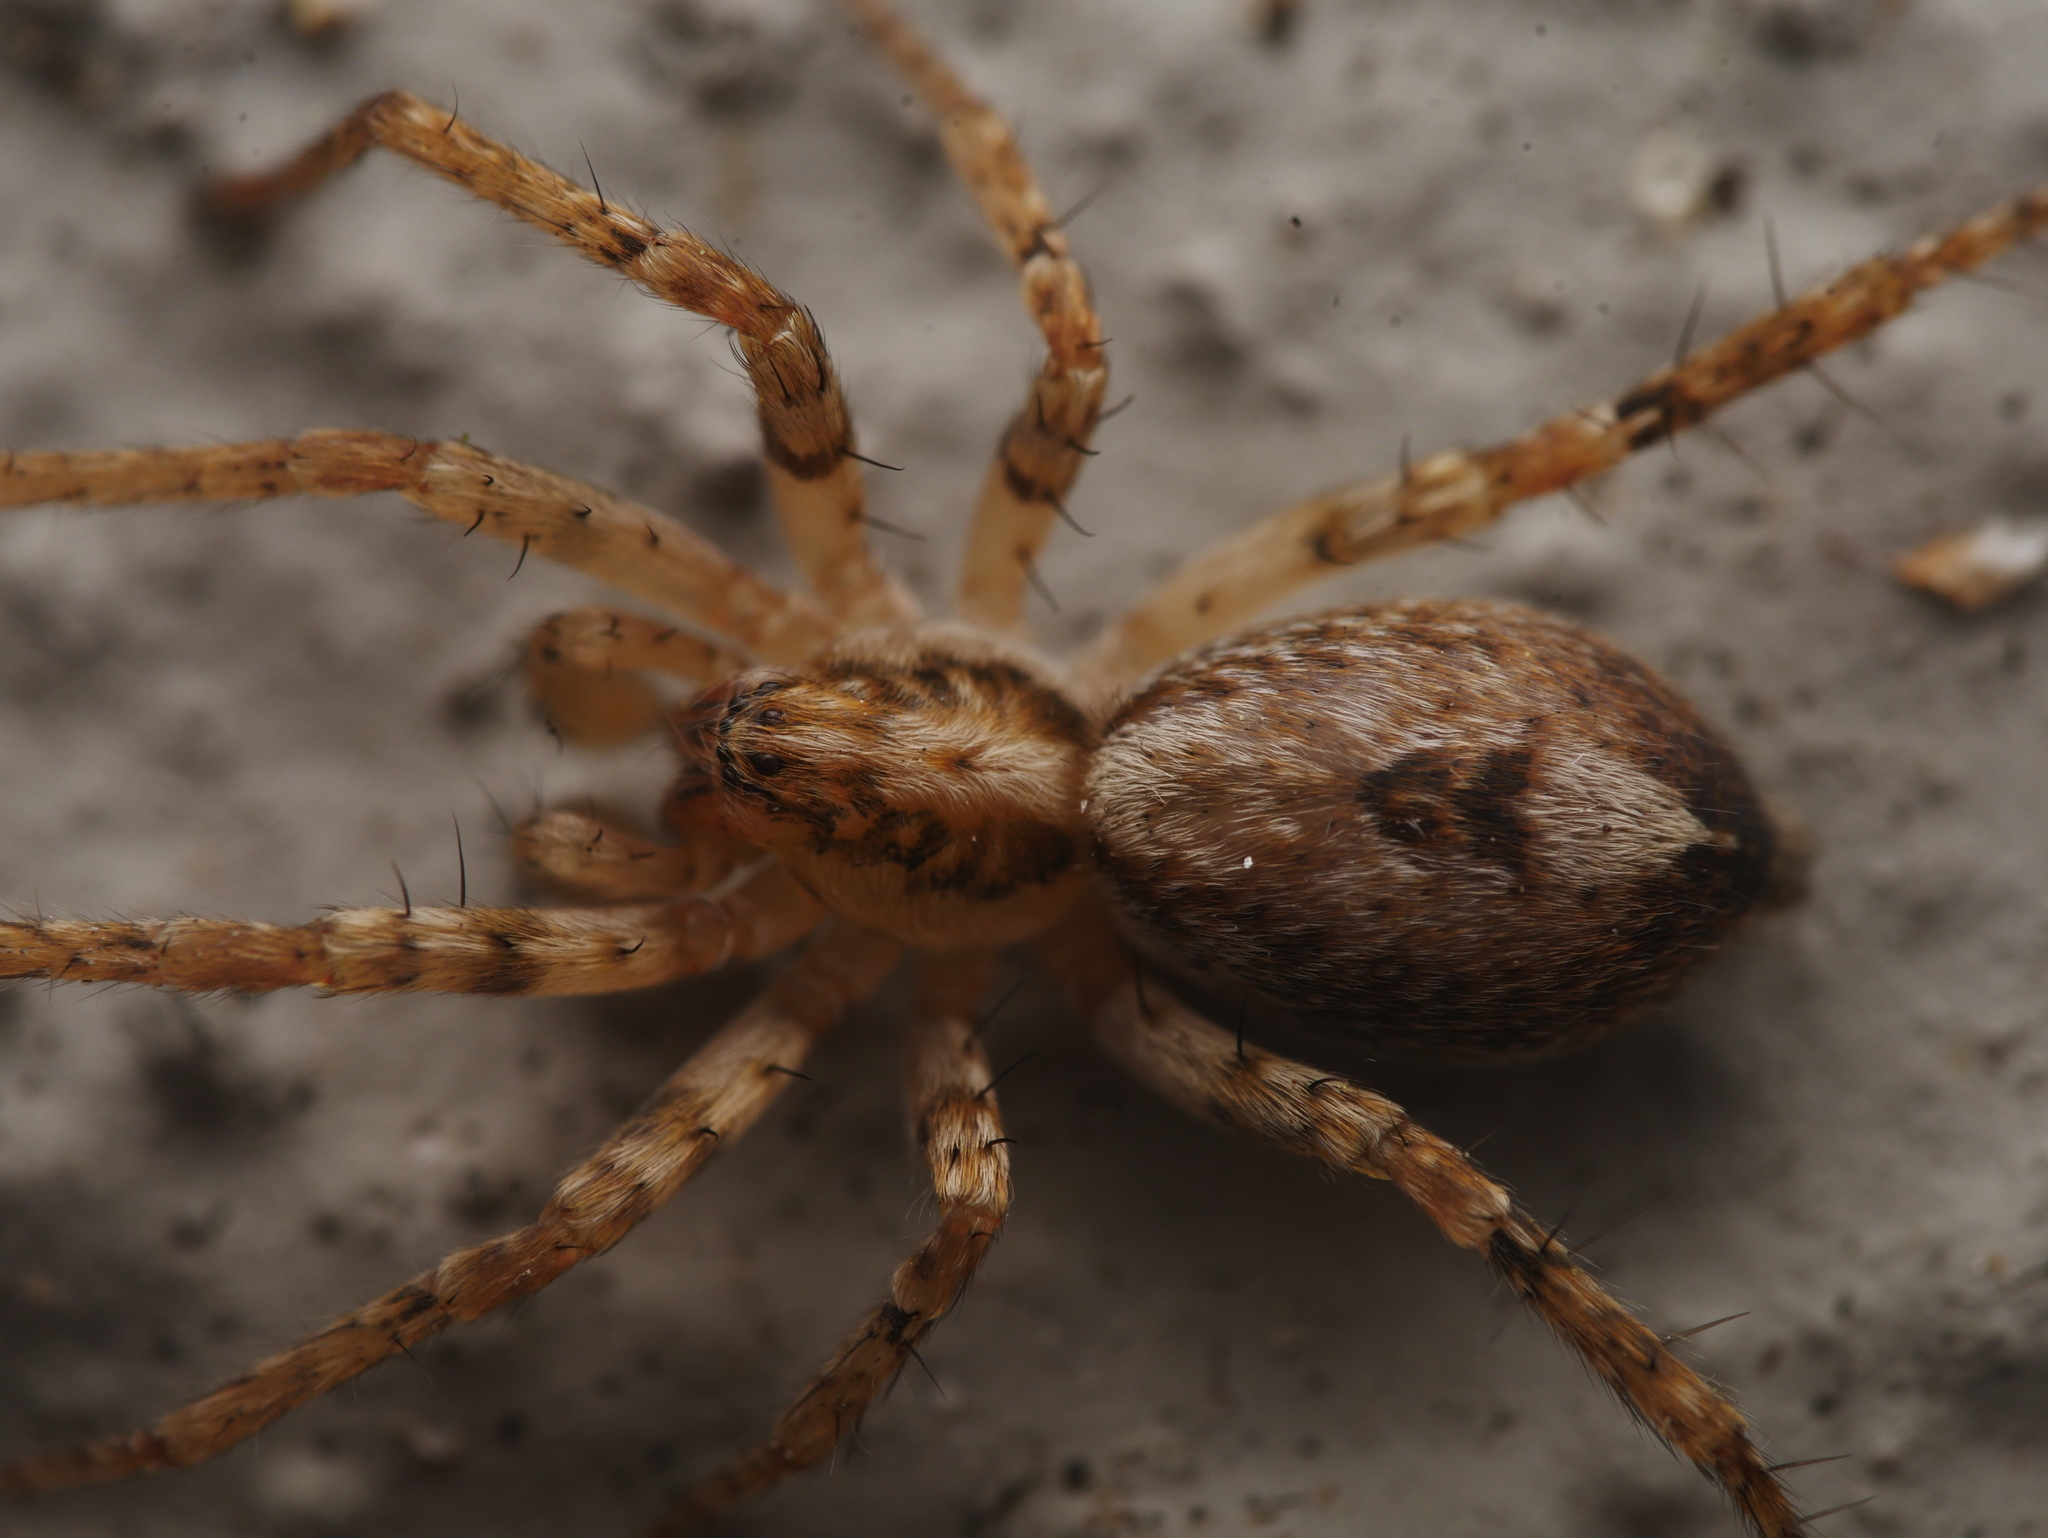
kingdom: Animalia
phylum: Arthropoda
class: Arachnida
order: Araneae
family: Anyphaenidae
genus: Anyphaena
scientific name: Anyphaena accentuata
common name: Buzzing spider
